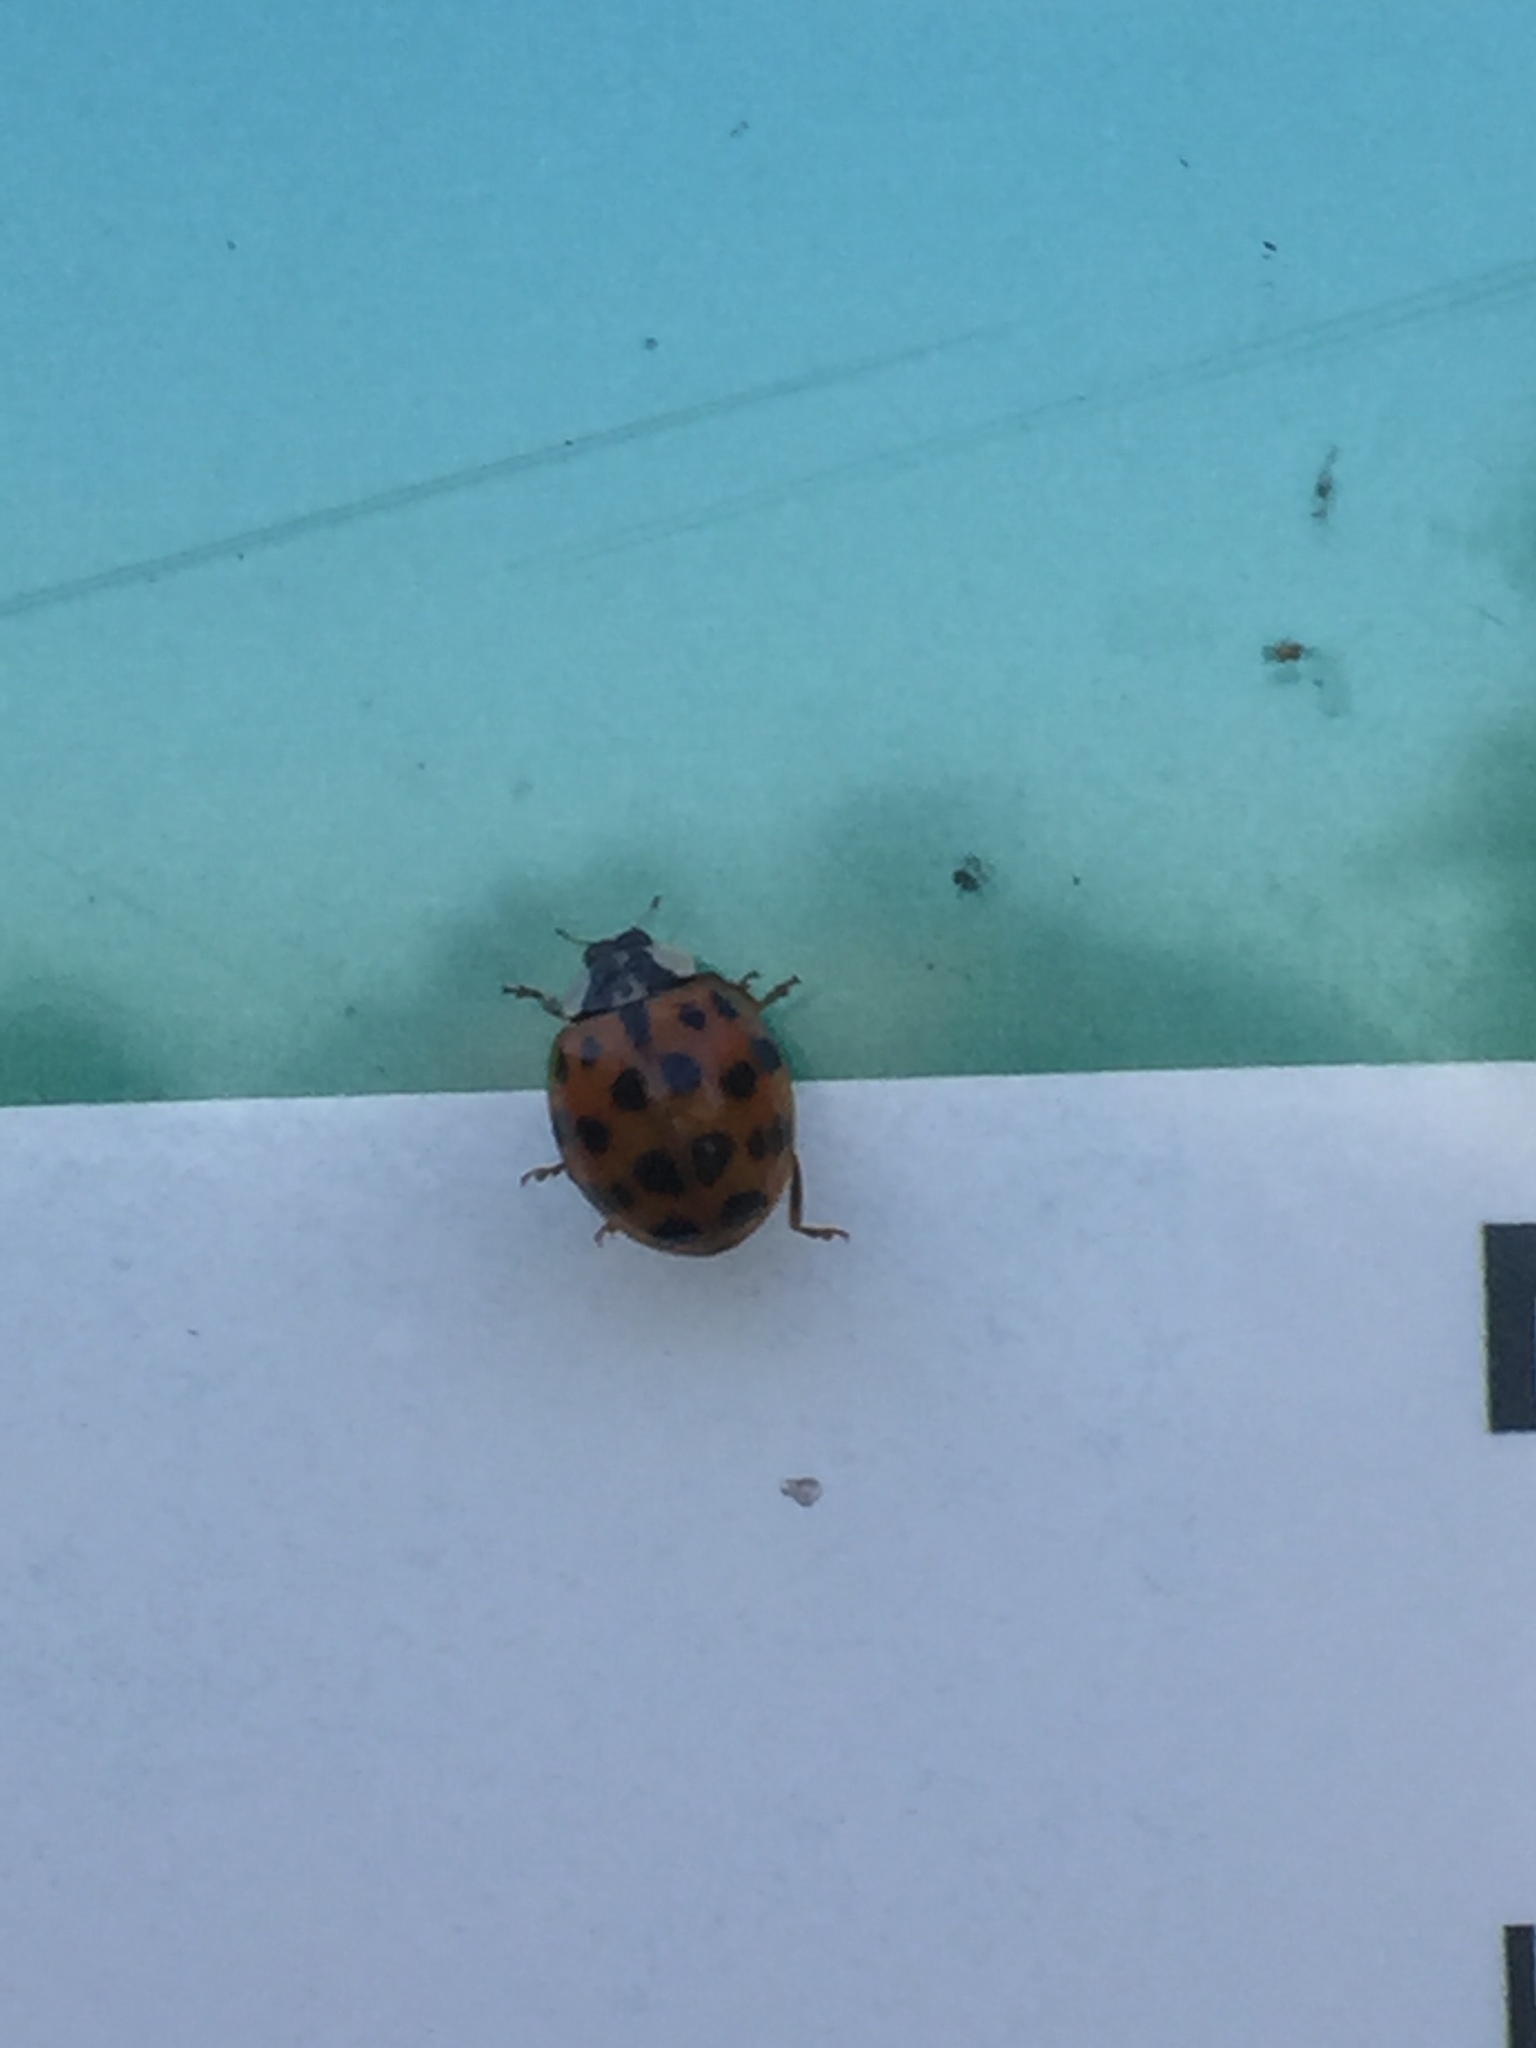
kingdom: Animalia
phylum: Arthropoda
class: Insecta
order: Coleoptera
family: Coccinellidae
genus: Harmonia
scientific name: Harmonia axyridis
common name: Harlequin ladybird
